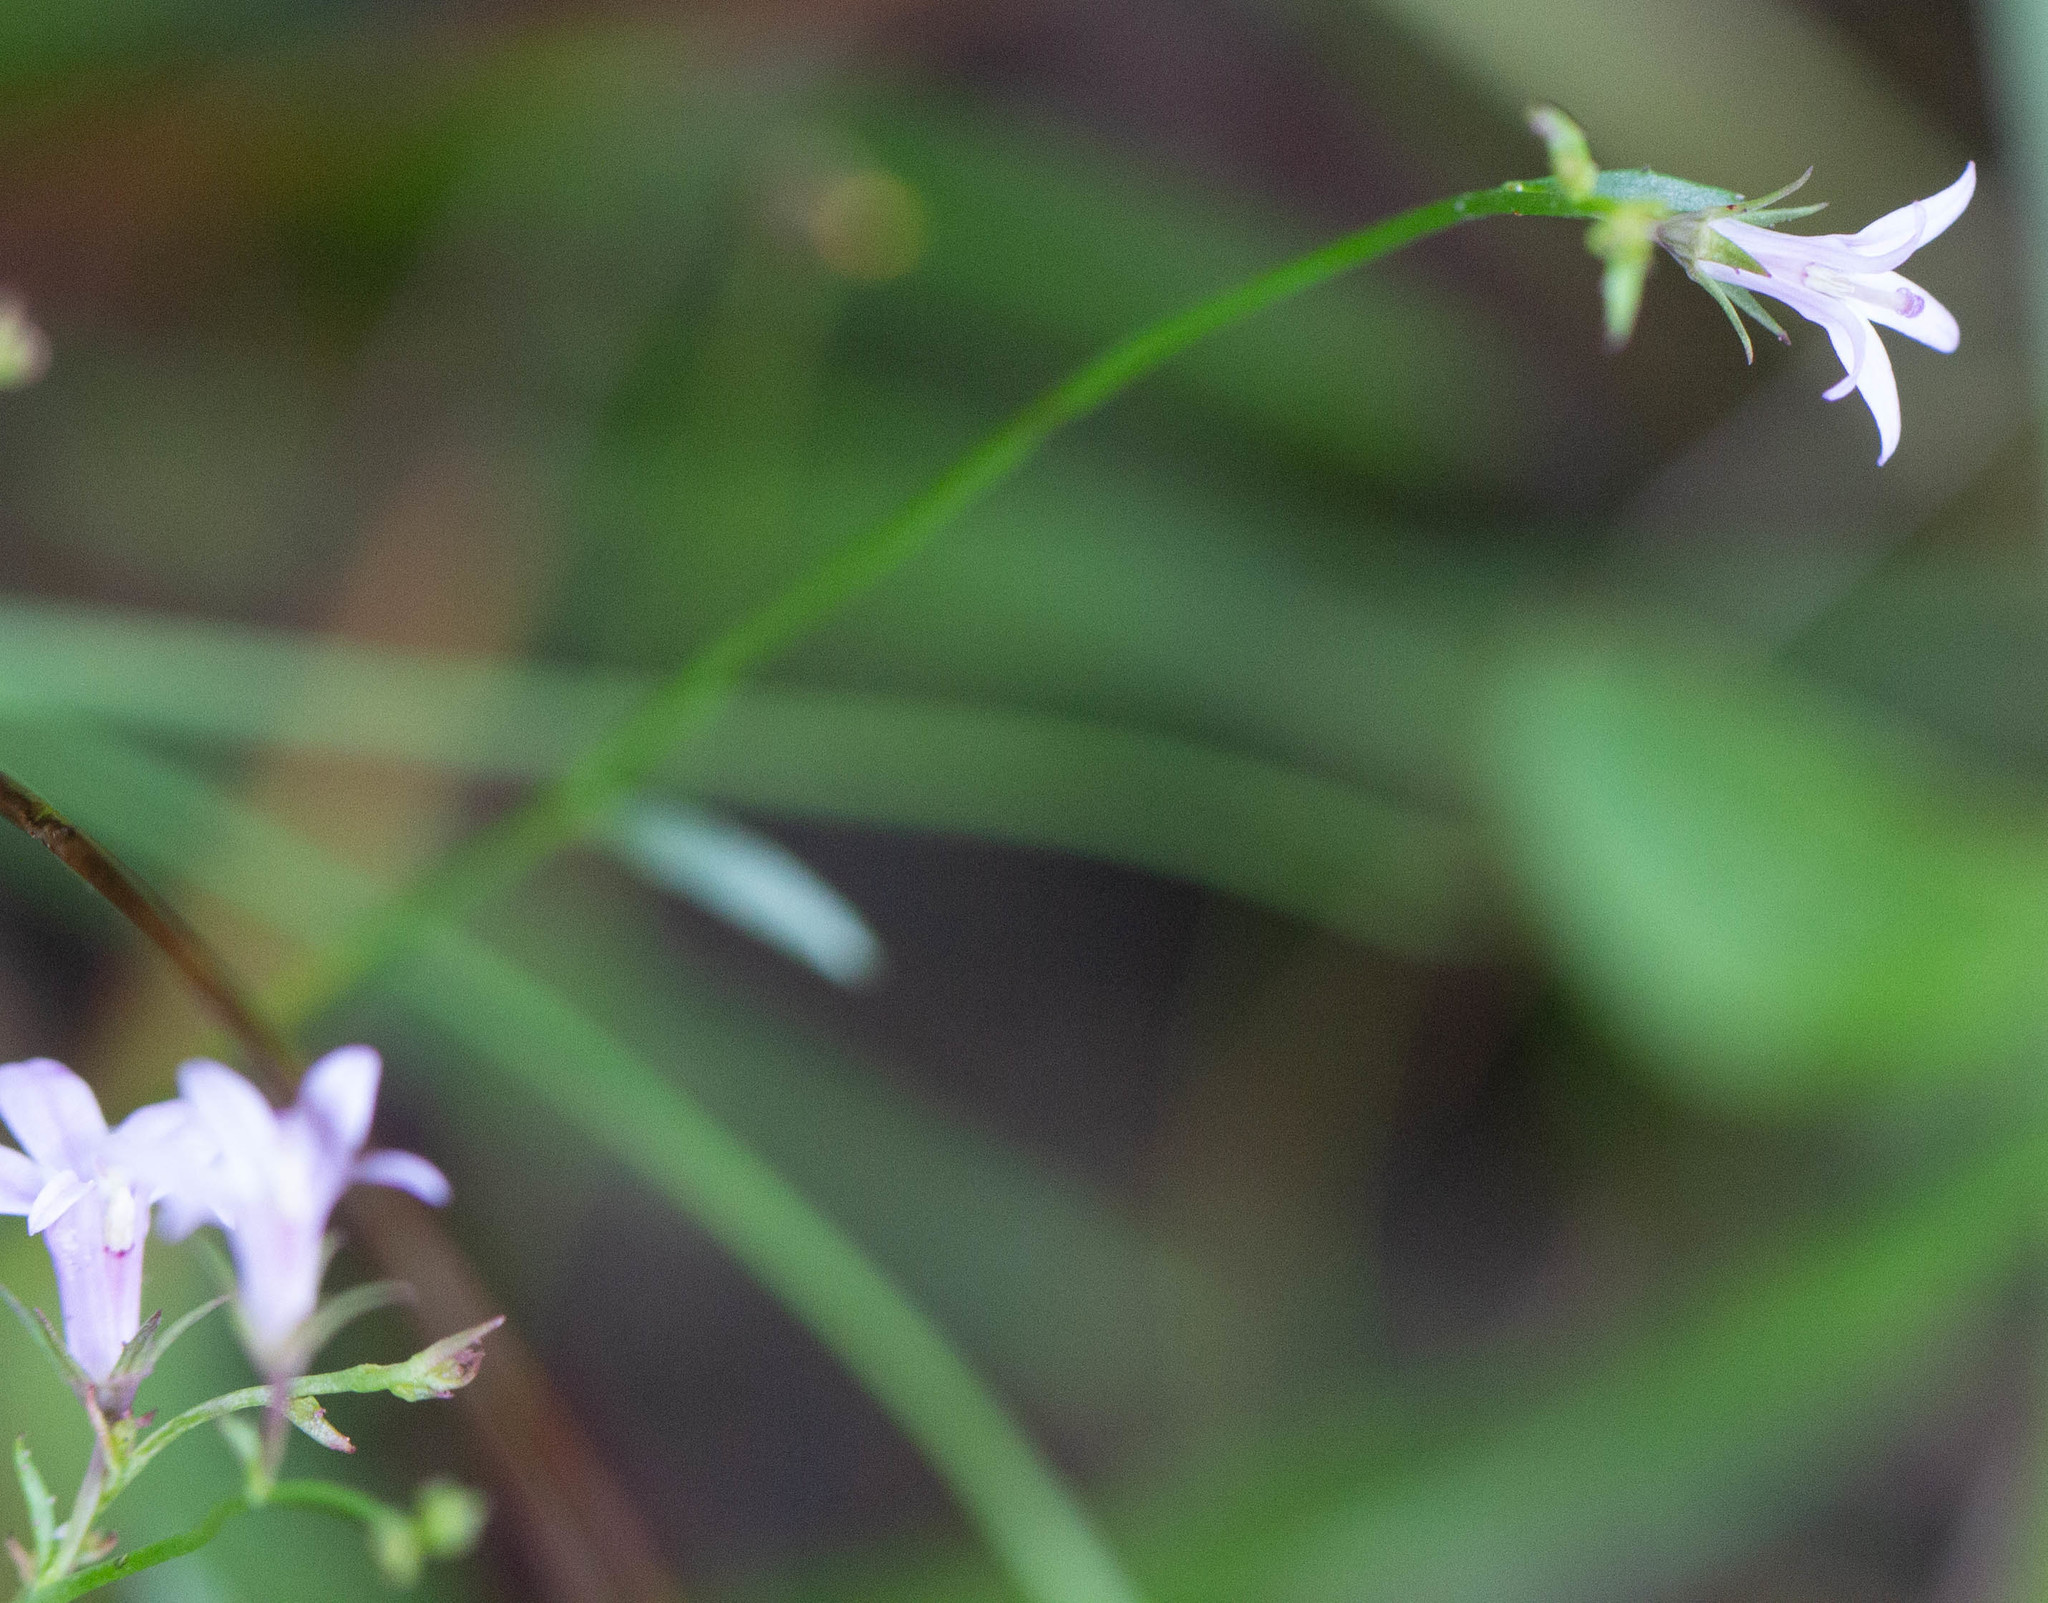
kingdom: Plantae
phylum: Tracheophyta
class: Magnoliopsida
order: Asterales
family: Campanulaceae
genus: Lobelia
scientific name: Lobelia nuttallii
